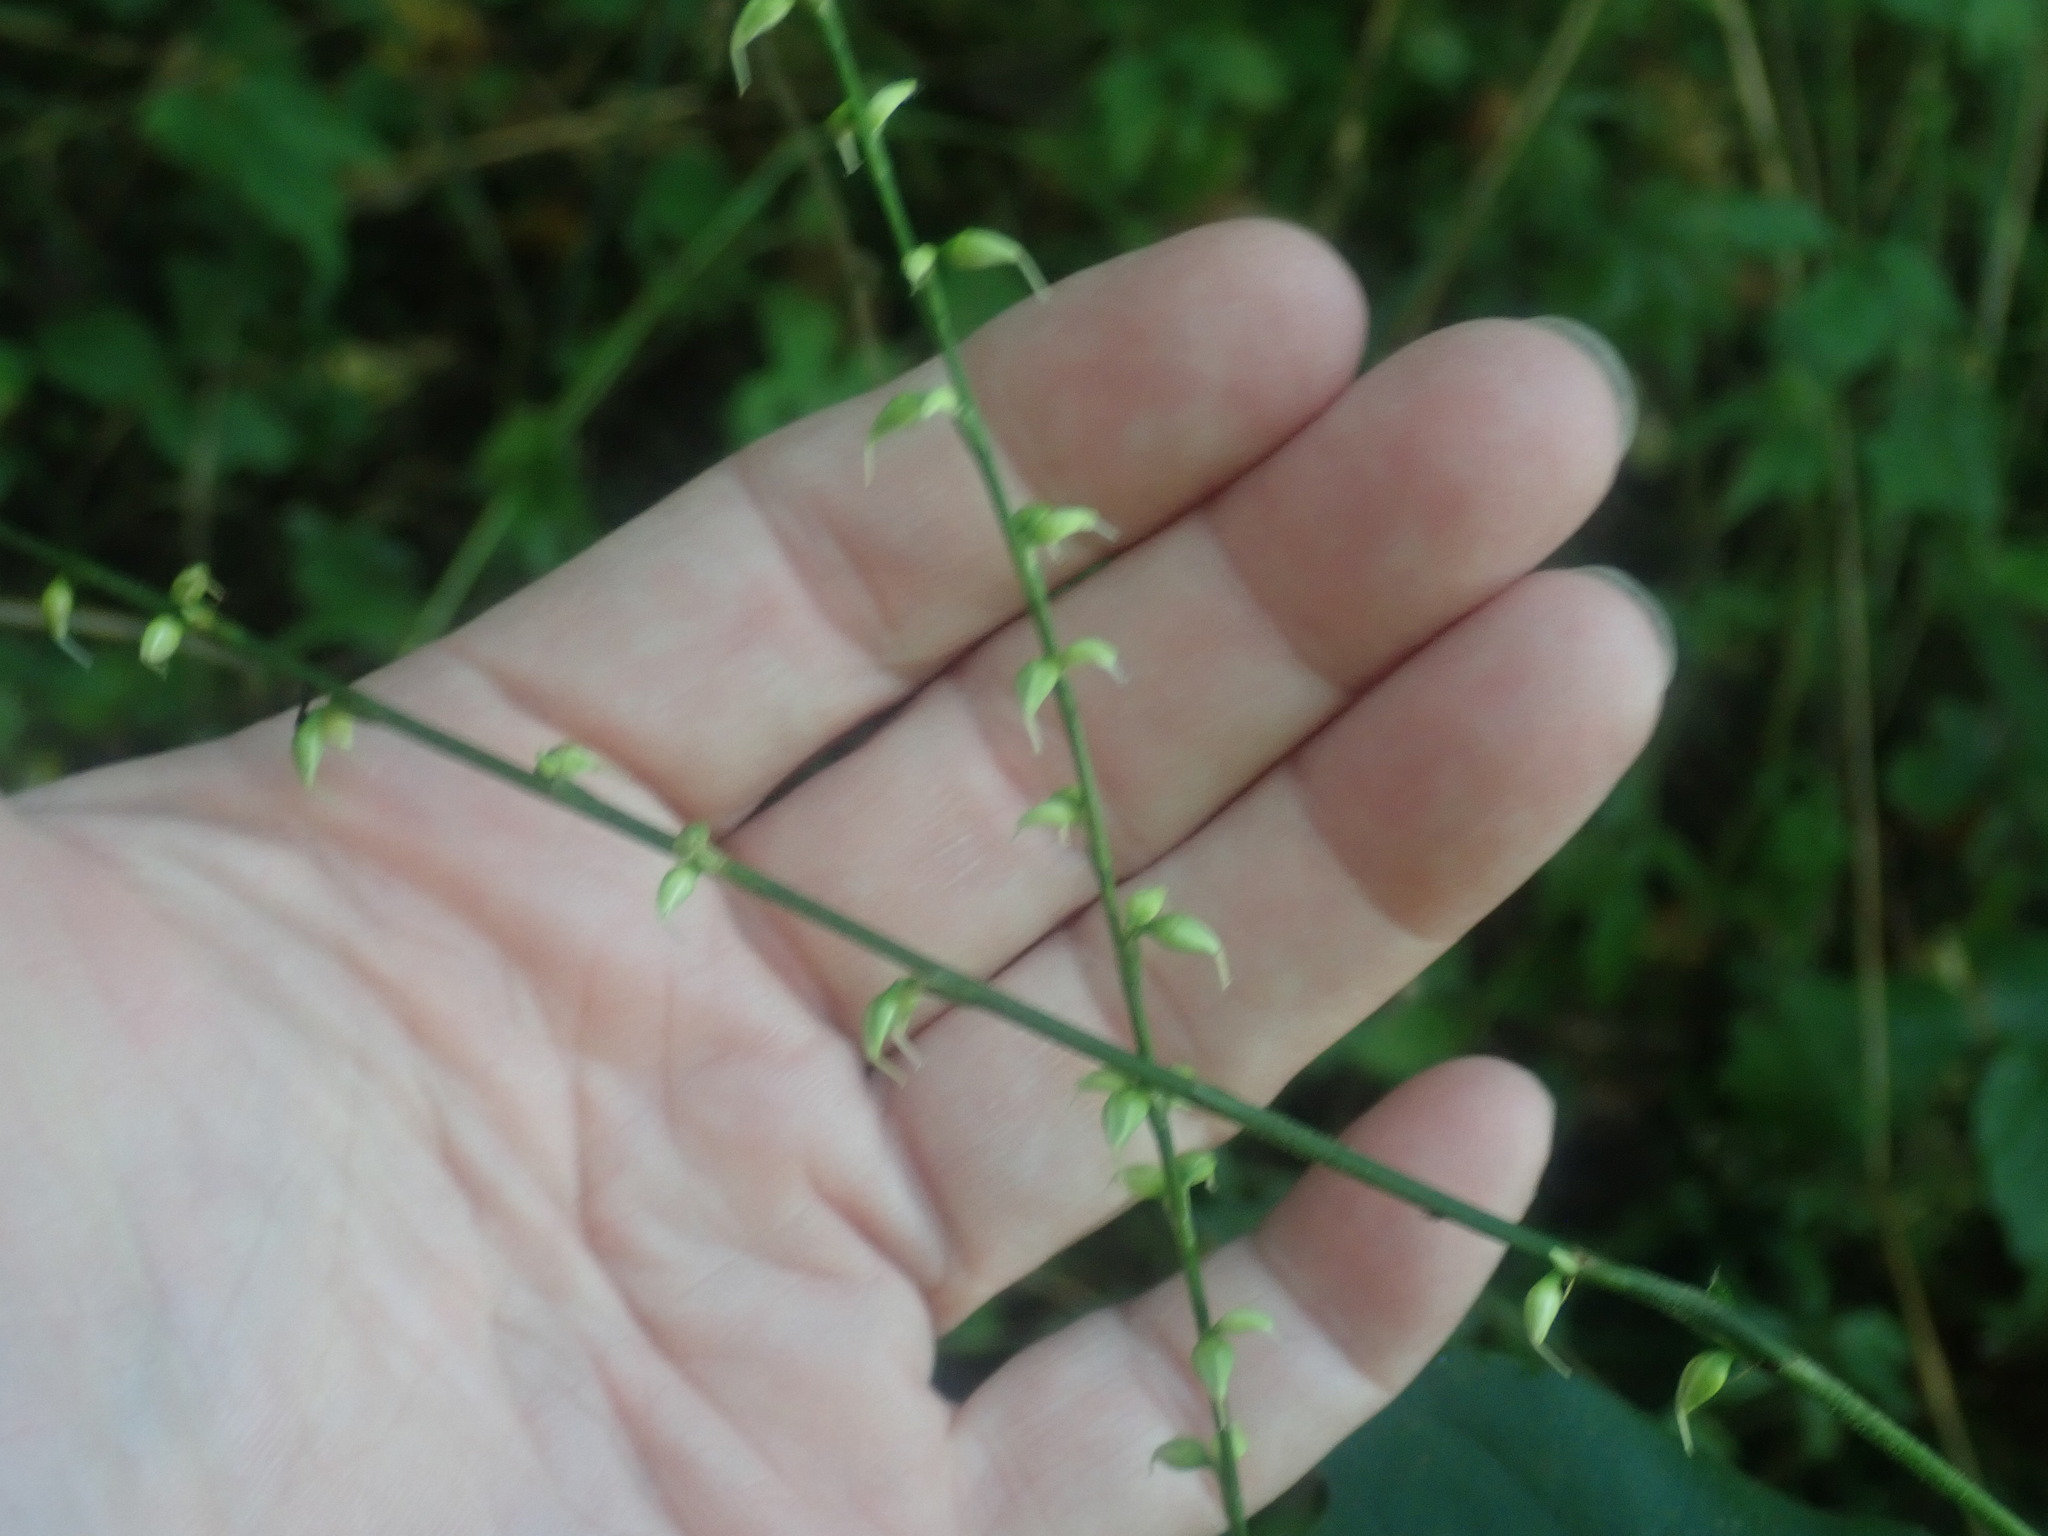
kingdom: Plantae
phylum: Tracheophyta
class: Magnoliopsida
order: Caryophyllales
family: Polygonaceae
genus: Persicaria
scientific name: Persicaria virginiana
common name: Jumpseed
